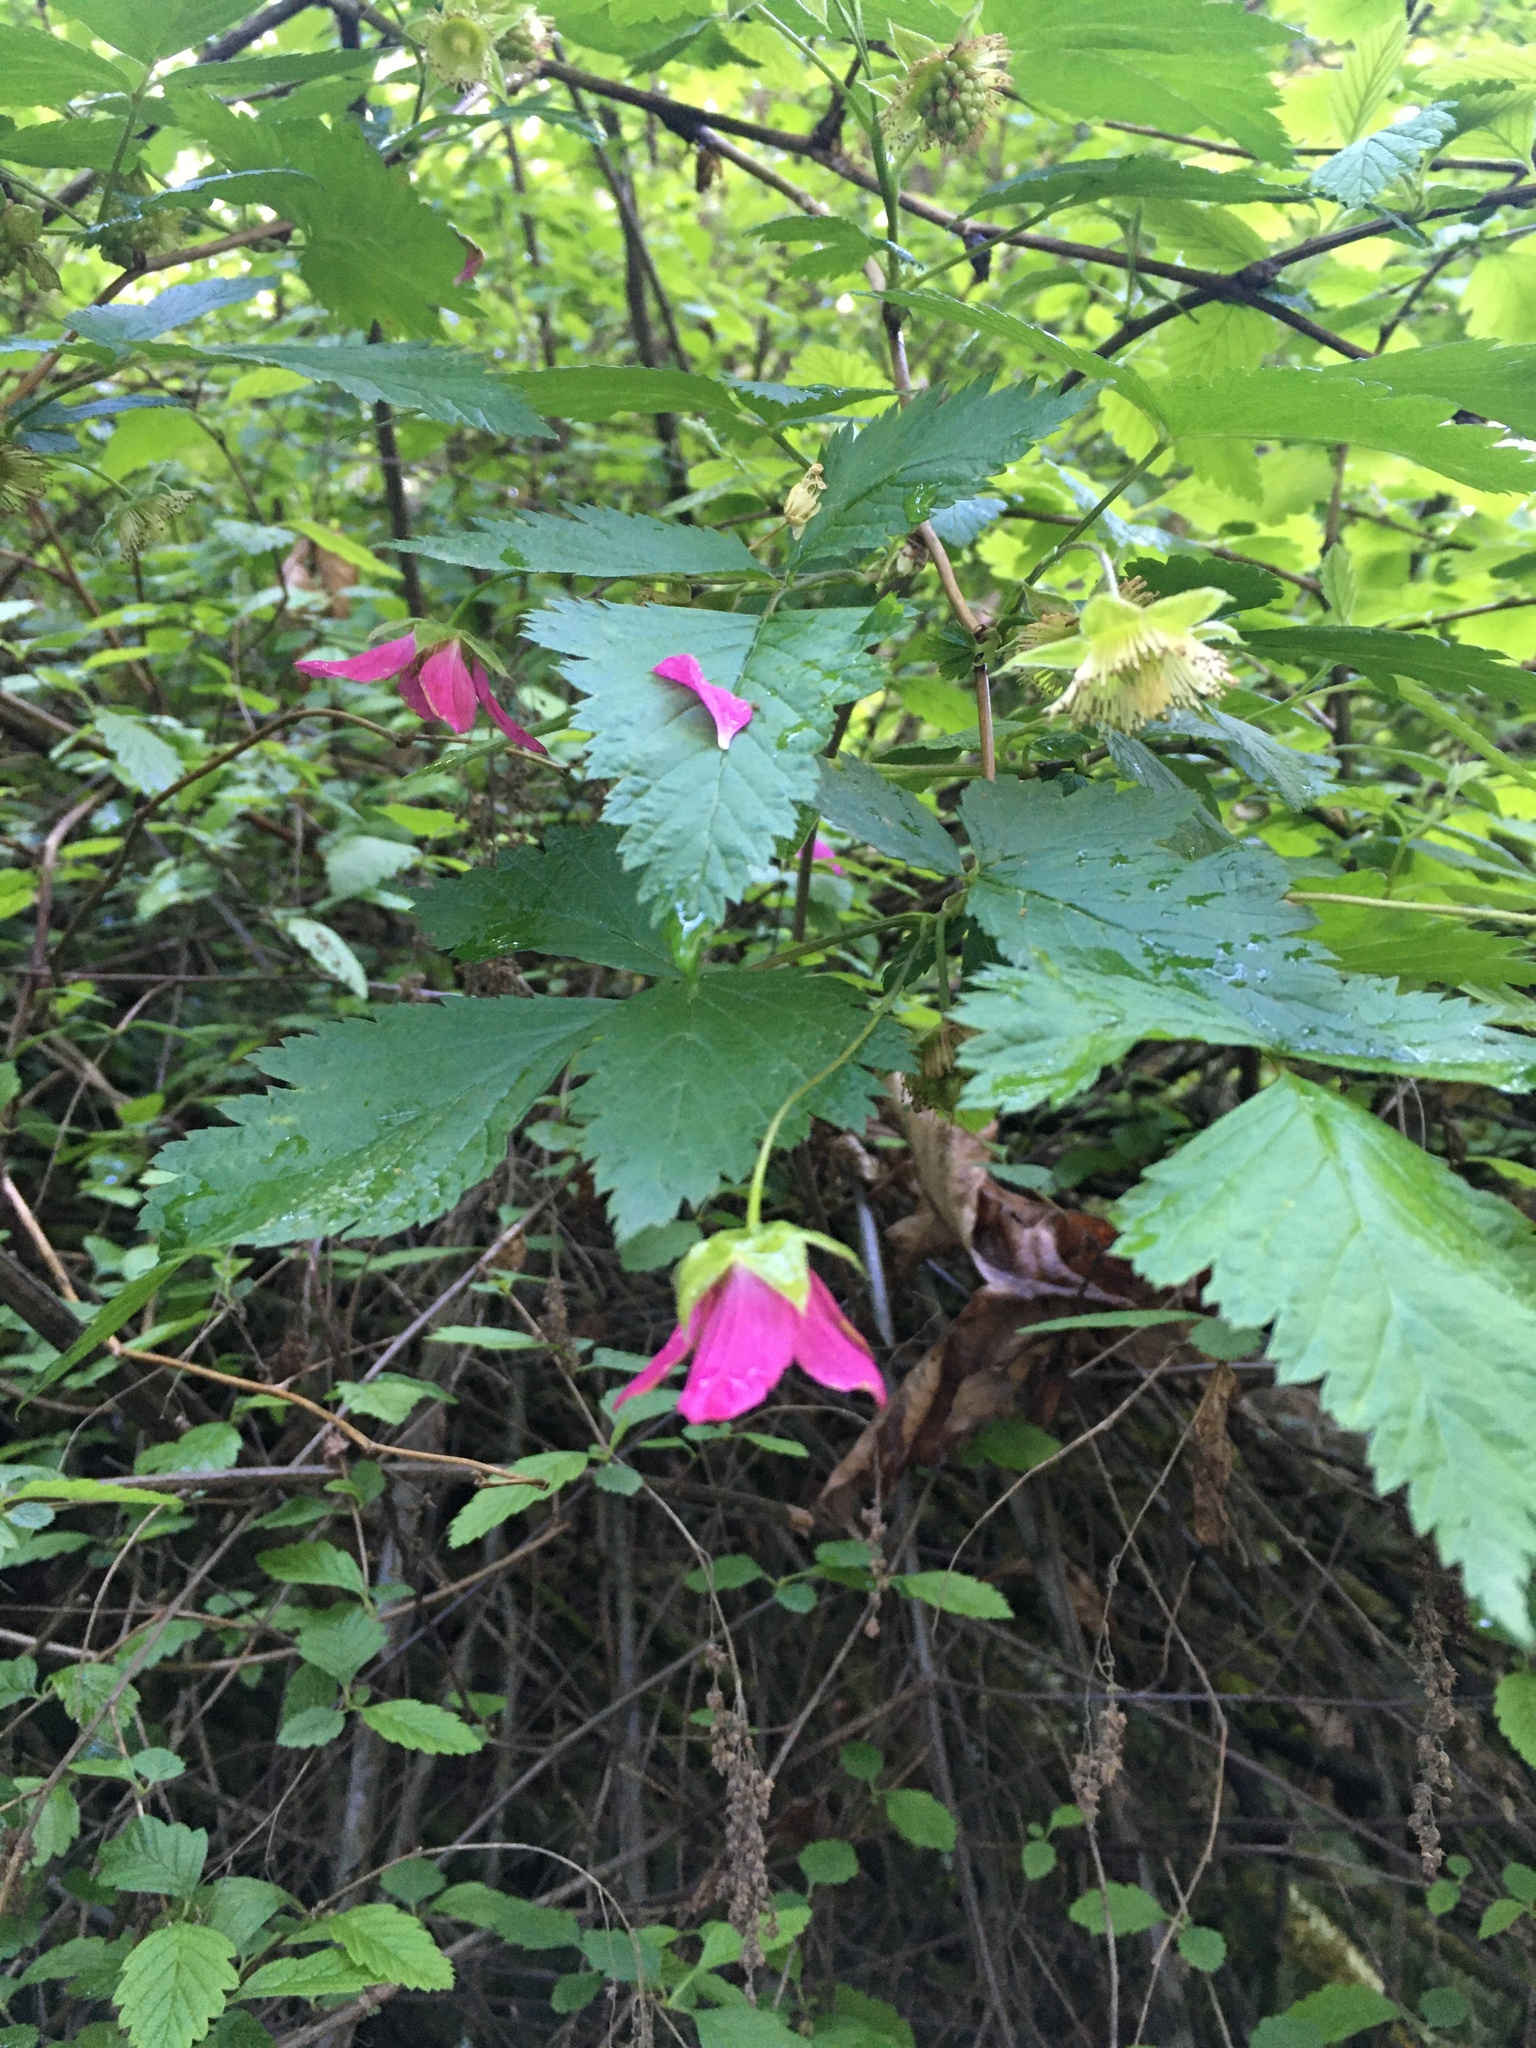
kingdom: Plantae
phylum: Tracheophyta
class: Magnoliopsida
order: Rosales
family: Rosaceae
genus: Rubus
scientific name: Rubus spectabilis
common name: Salmonberry
